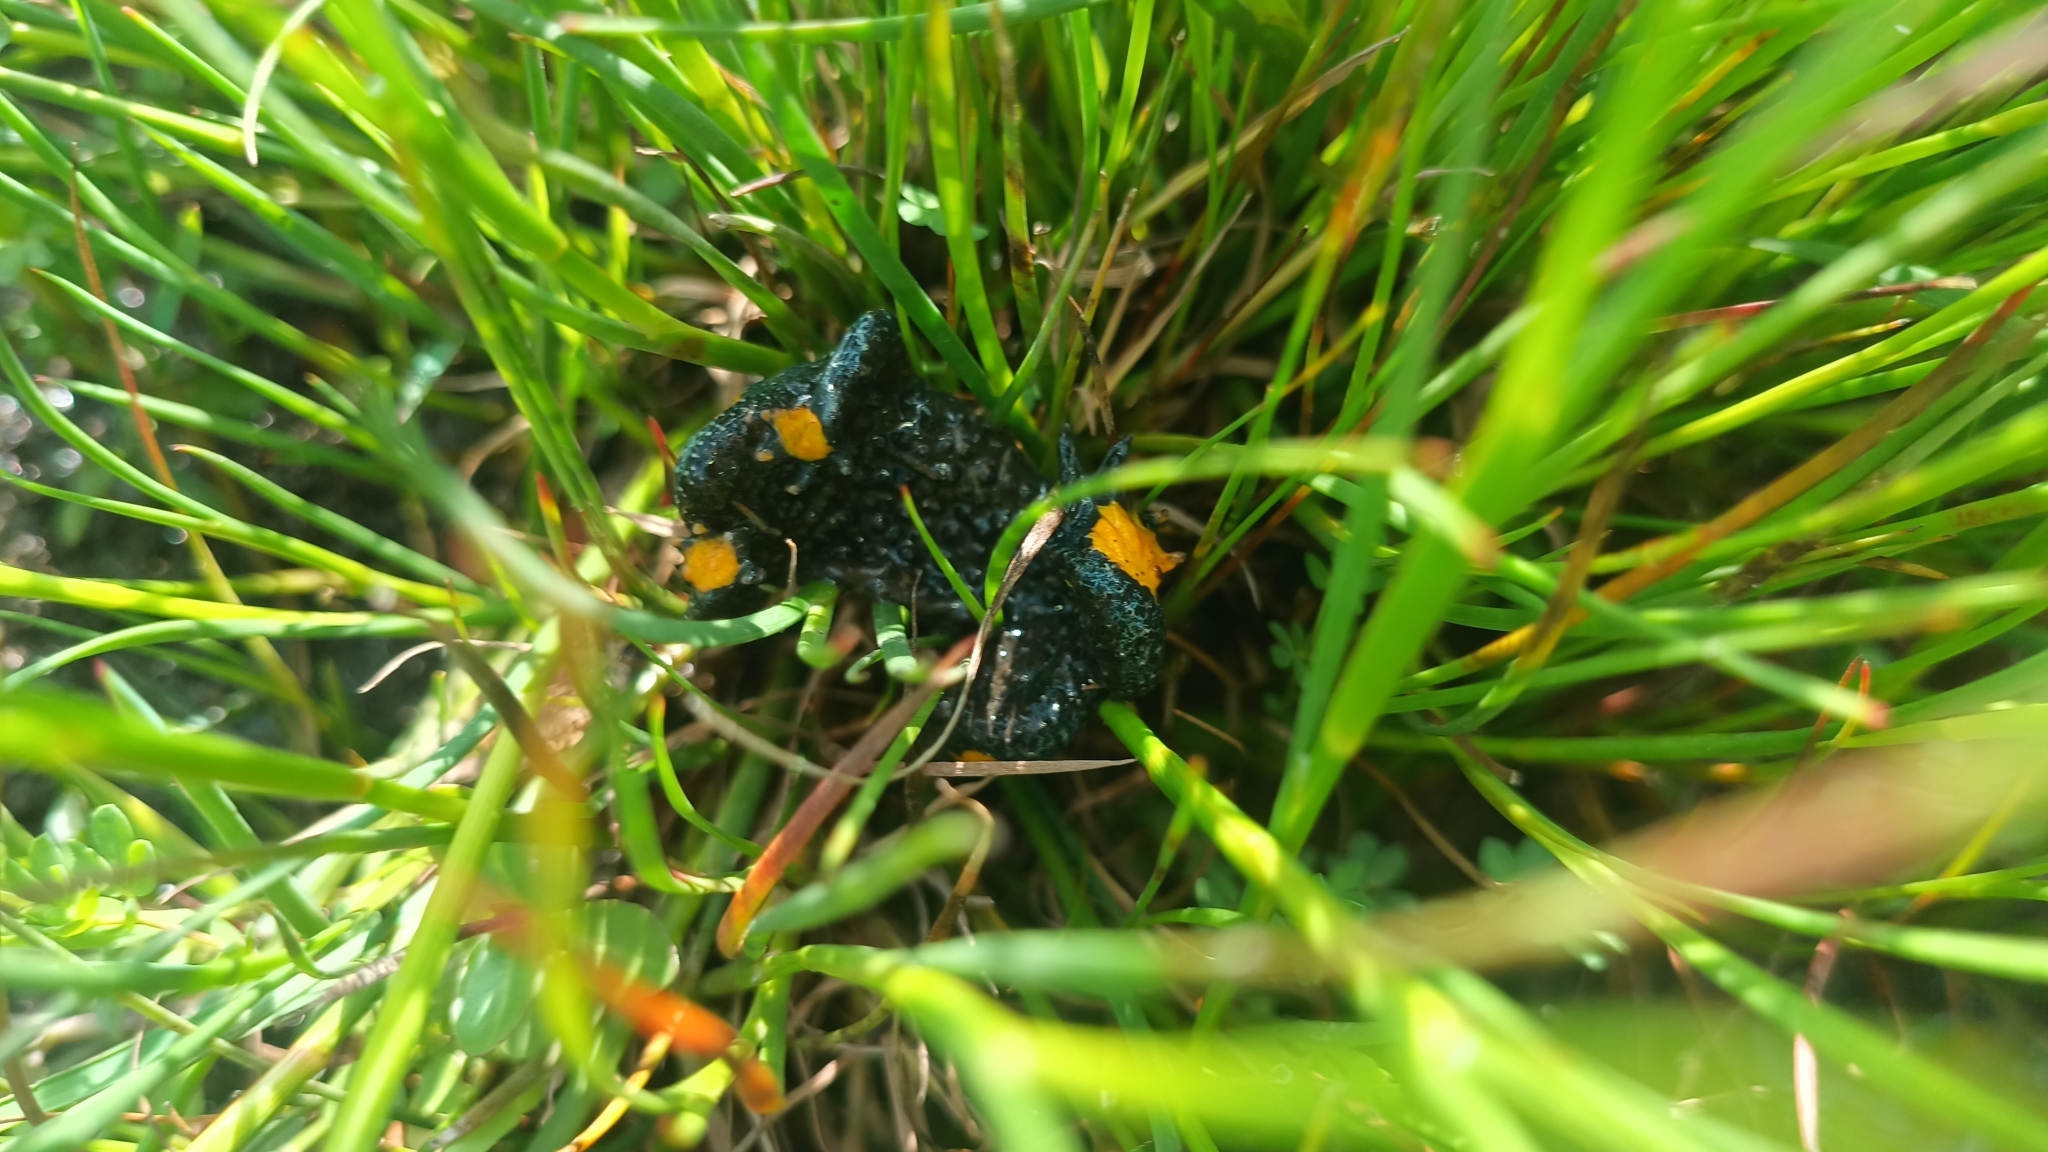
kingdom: Animalia
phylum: Chordata
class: Amphibia
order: Anura
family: Bombinatoridae
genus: Bombina
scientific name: Bombina variegata
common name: Yellow-bellied toad
